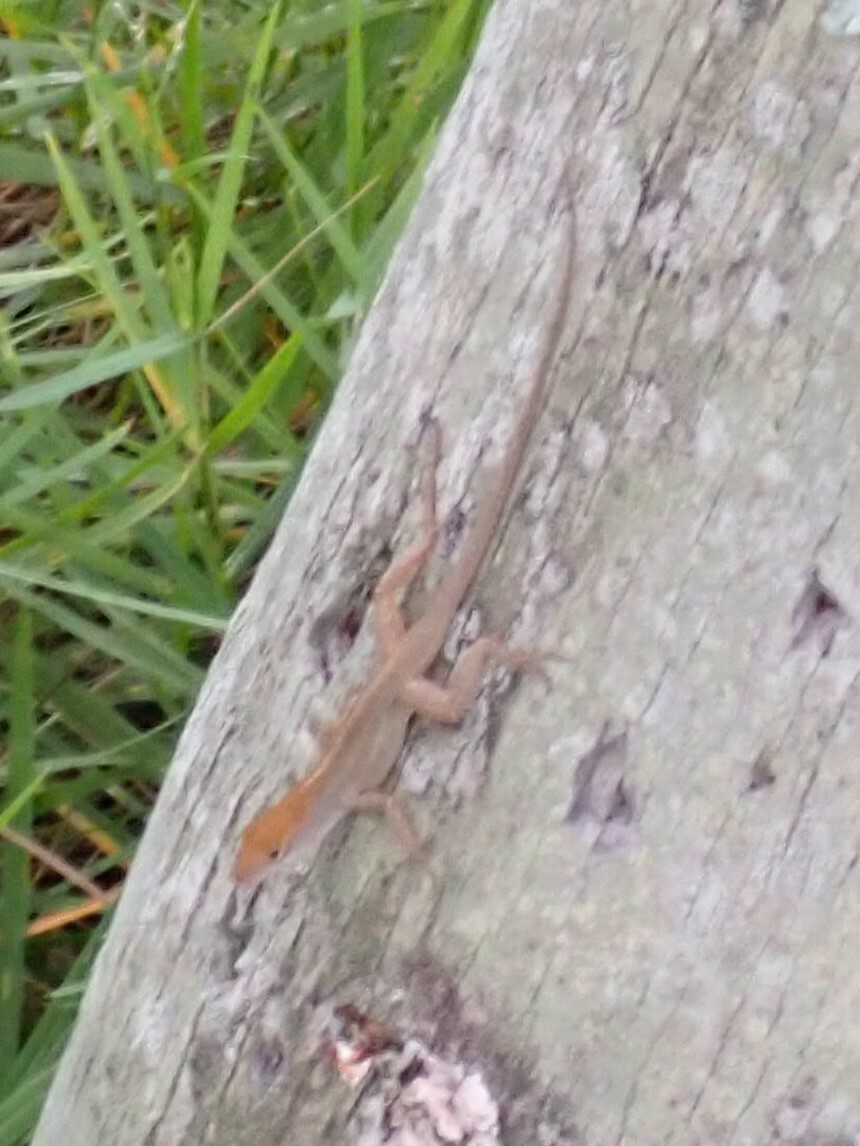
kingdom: Animalia
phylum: Chordata
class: Squamata
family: Dactyloidae
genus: Anolis
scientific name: Anolis sagrei
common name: Brown anole
